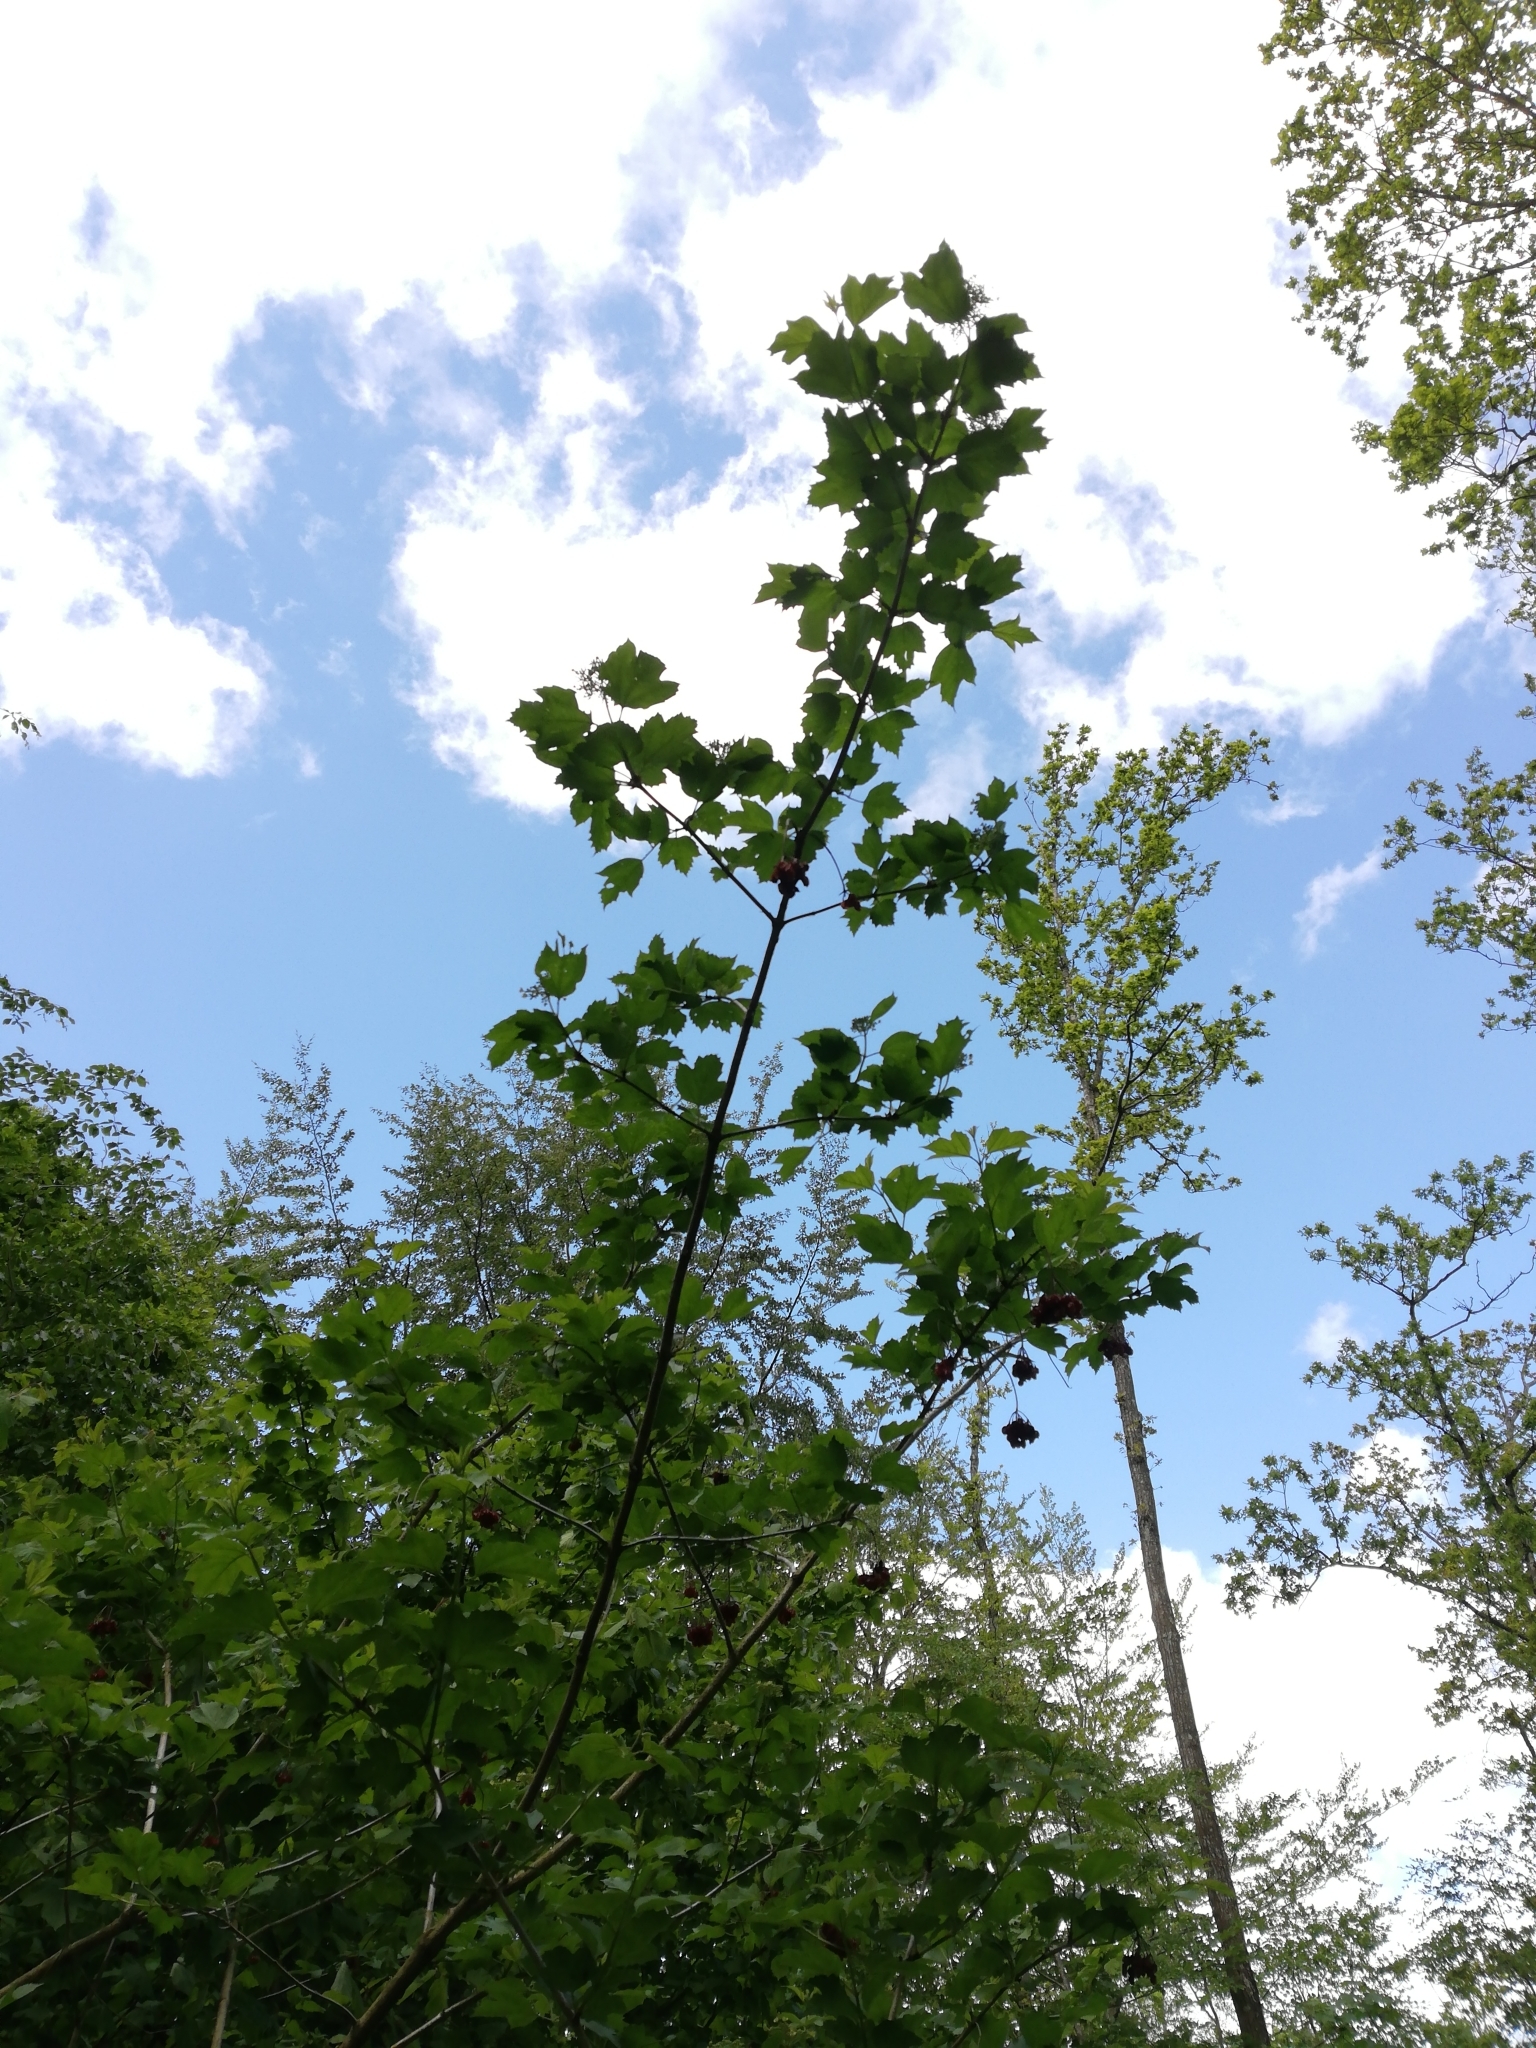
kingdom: Plantae
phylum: Tracheophyta
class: Magnoliopsida
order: Dipsacales
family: Viburnaceae
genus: Viburnum
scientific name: Viburnum opulus
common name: Guelder-rose
